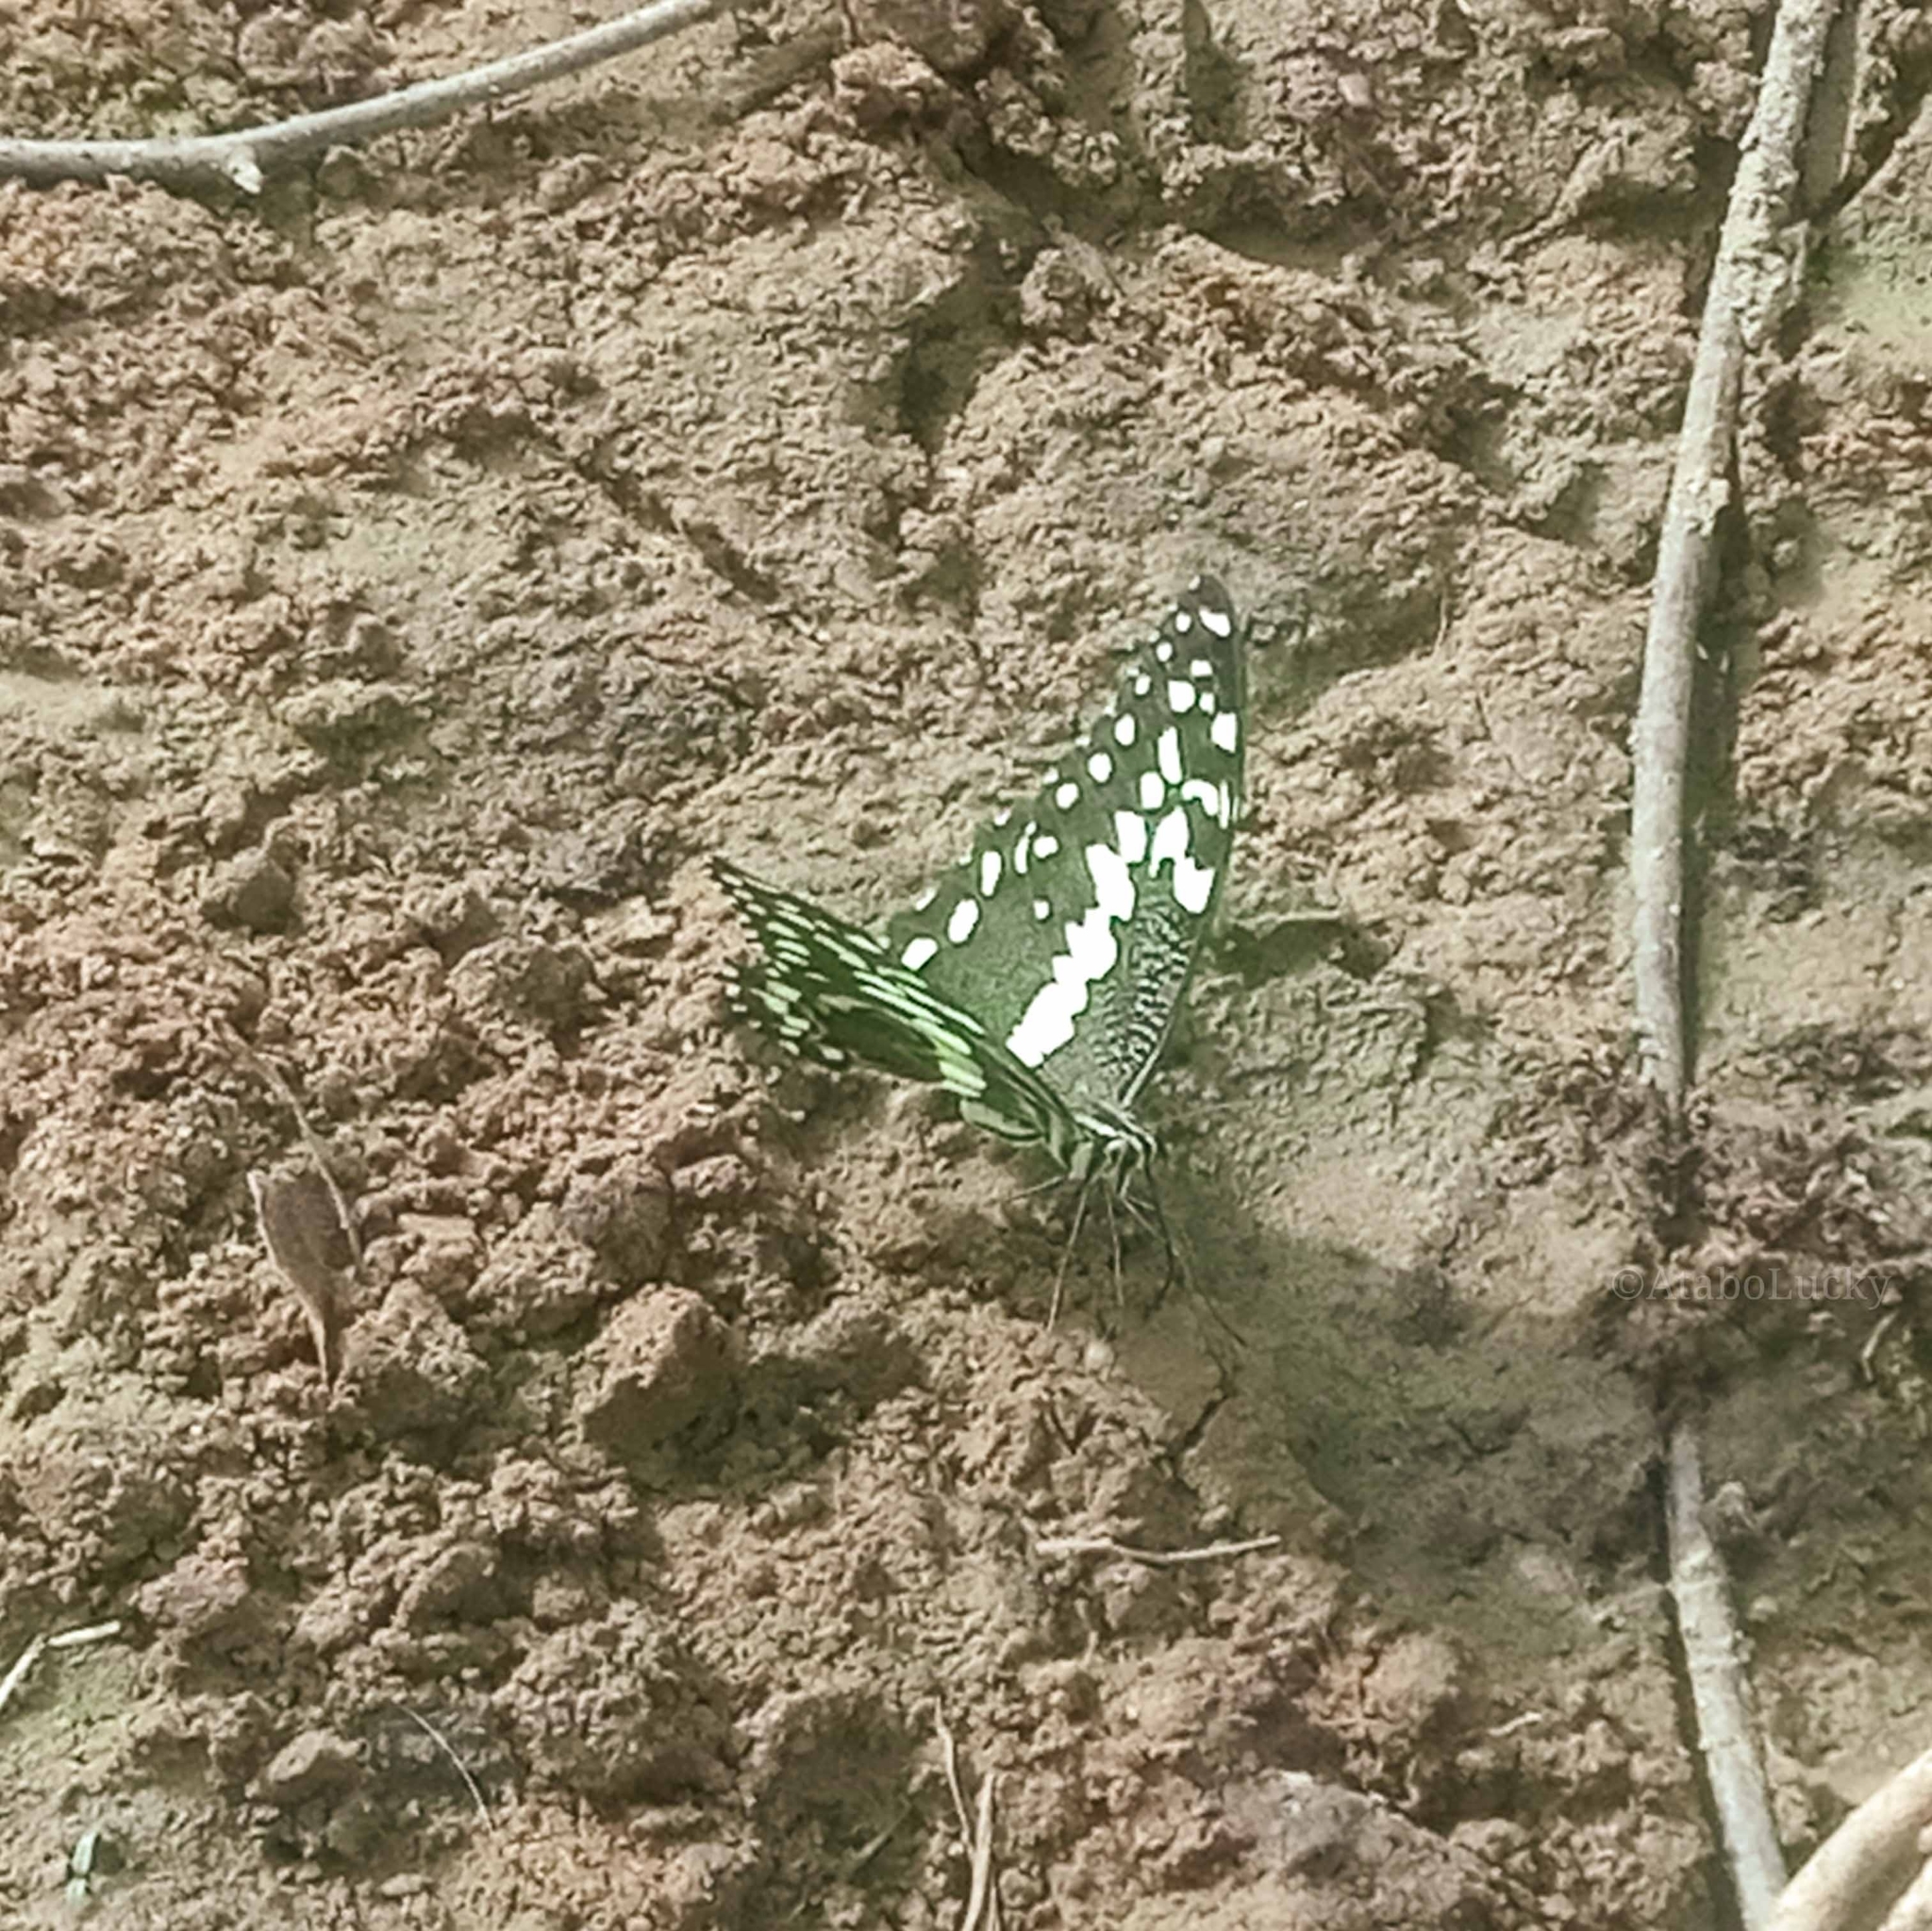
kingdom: Animalia
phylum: Arthropoda
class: Insecta
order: Lepidoptera
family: Papilionidae
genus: Papilio
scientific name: Papilio demodocus
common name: Christmas butterfly
